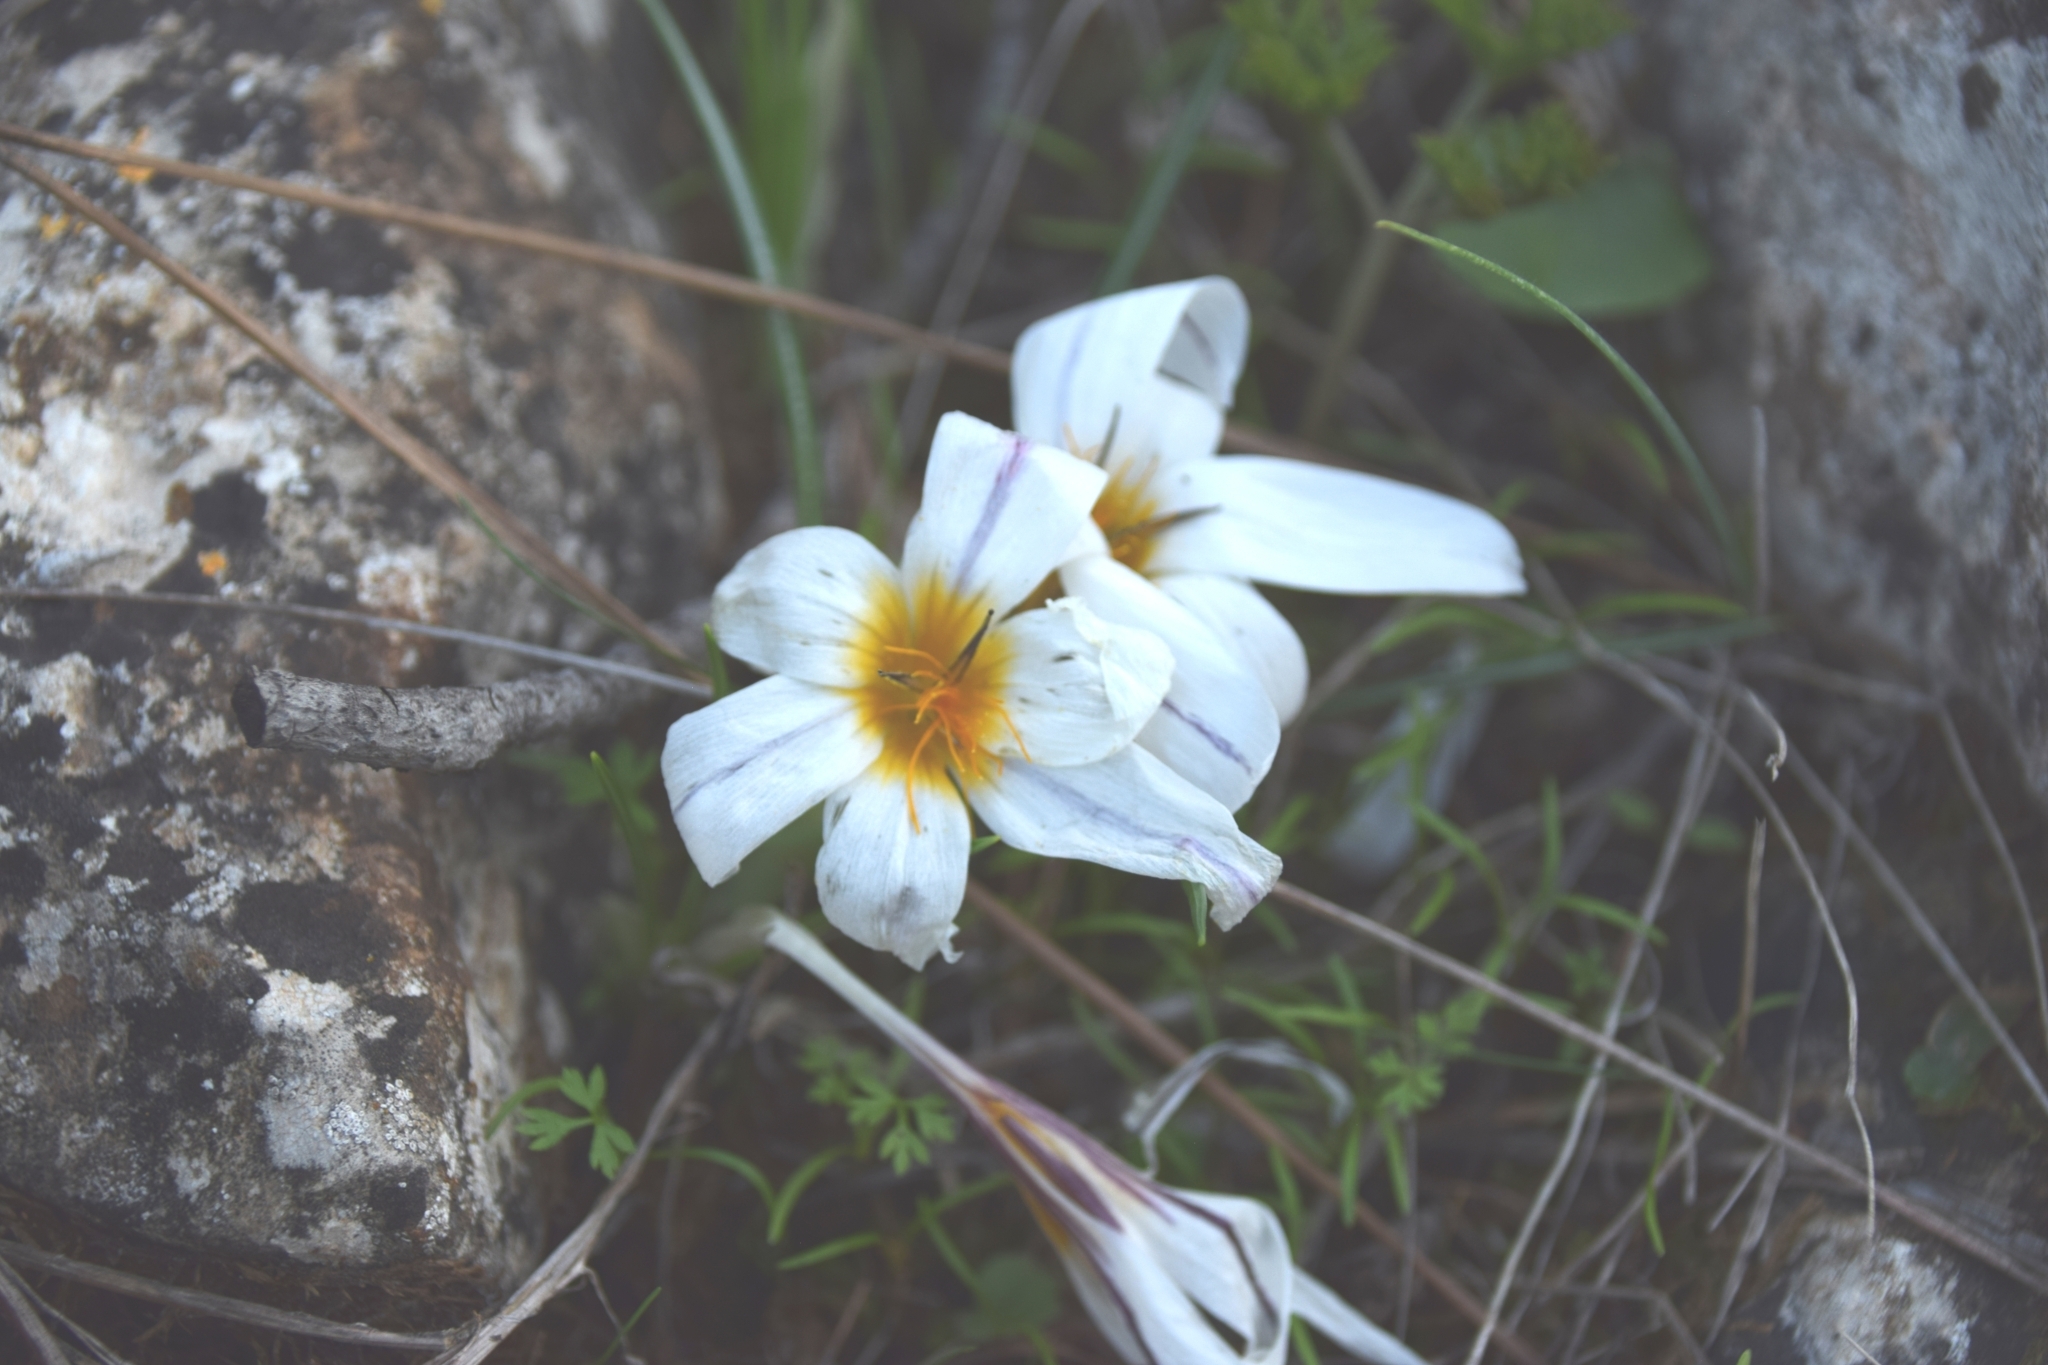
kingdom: Plantae
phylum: Tracheophyta
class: Liliopsida
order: Asparagales
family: Iridaceae
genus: Crocus
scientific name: Crocus hyemalis
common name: Winter crocus
